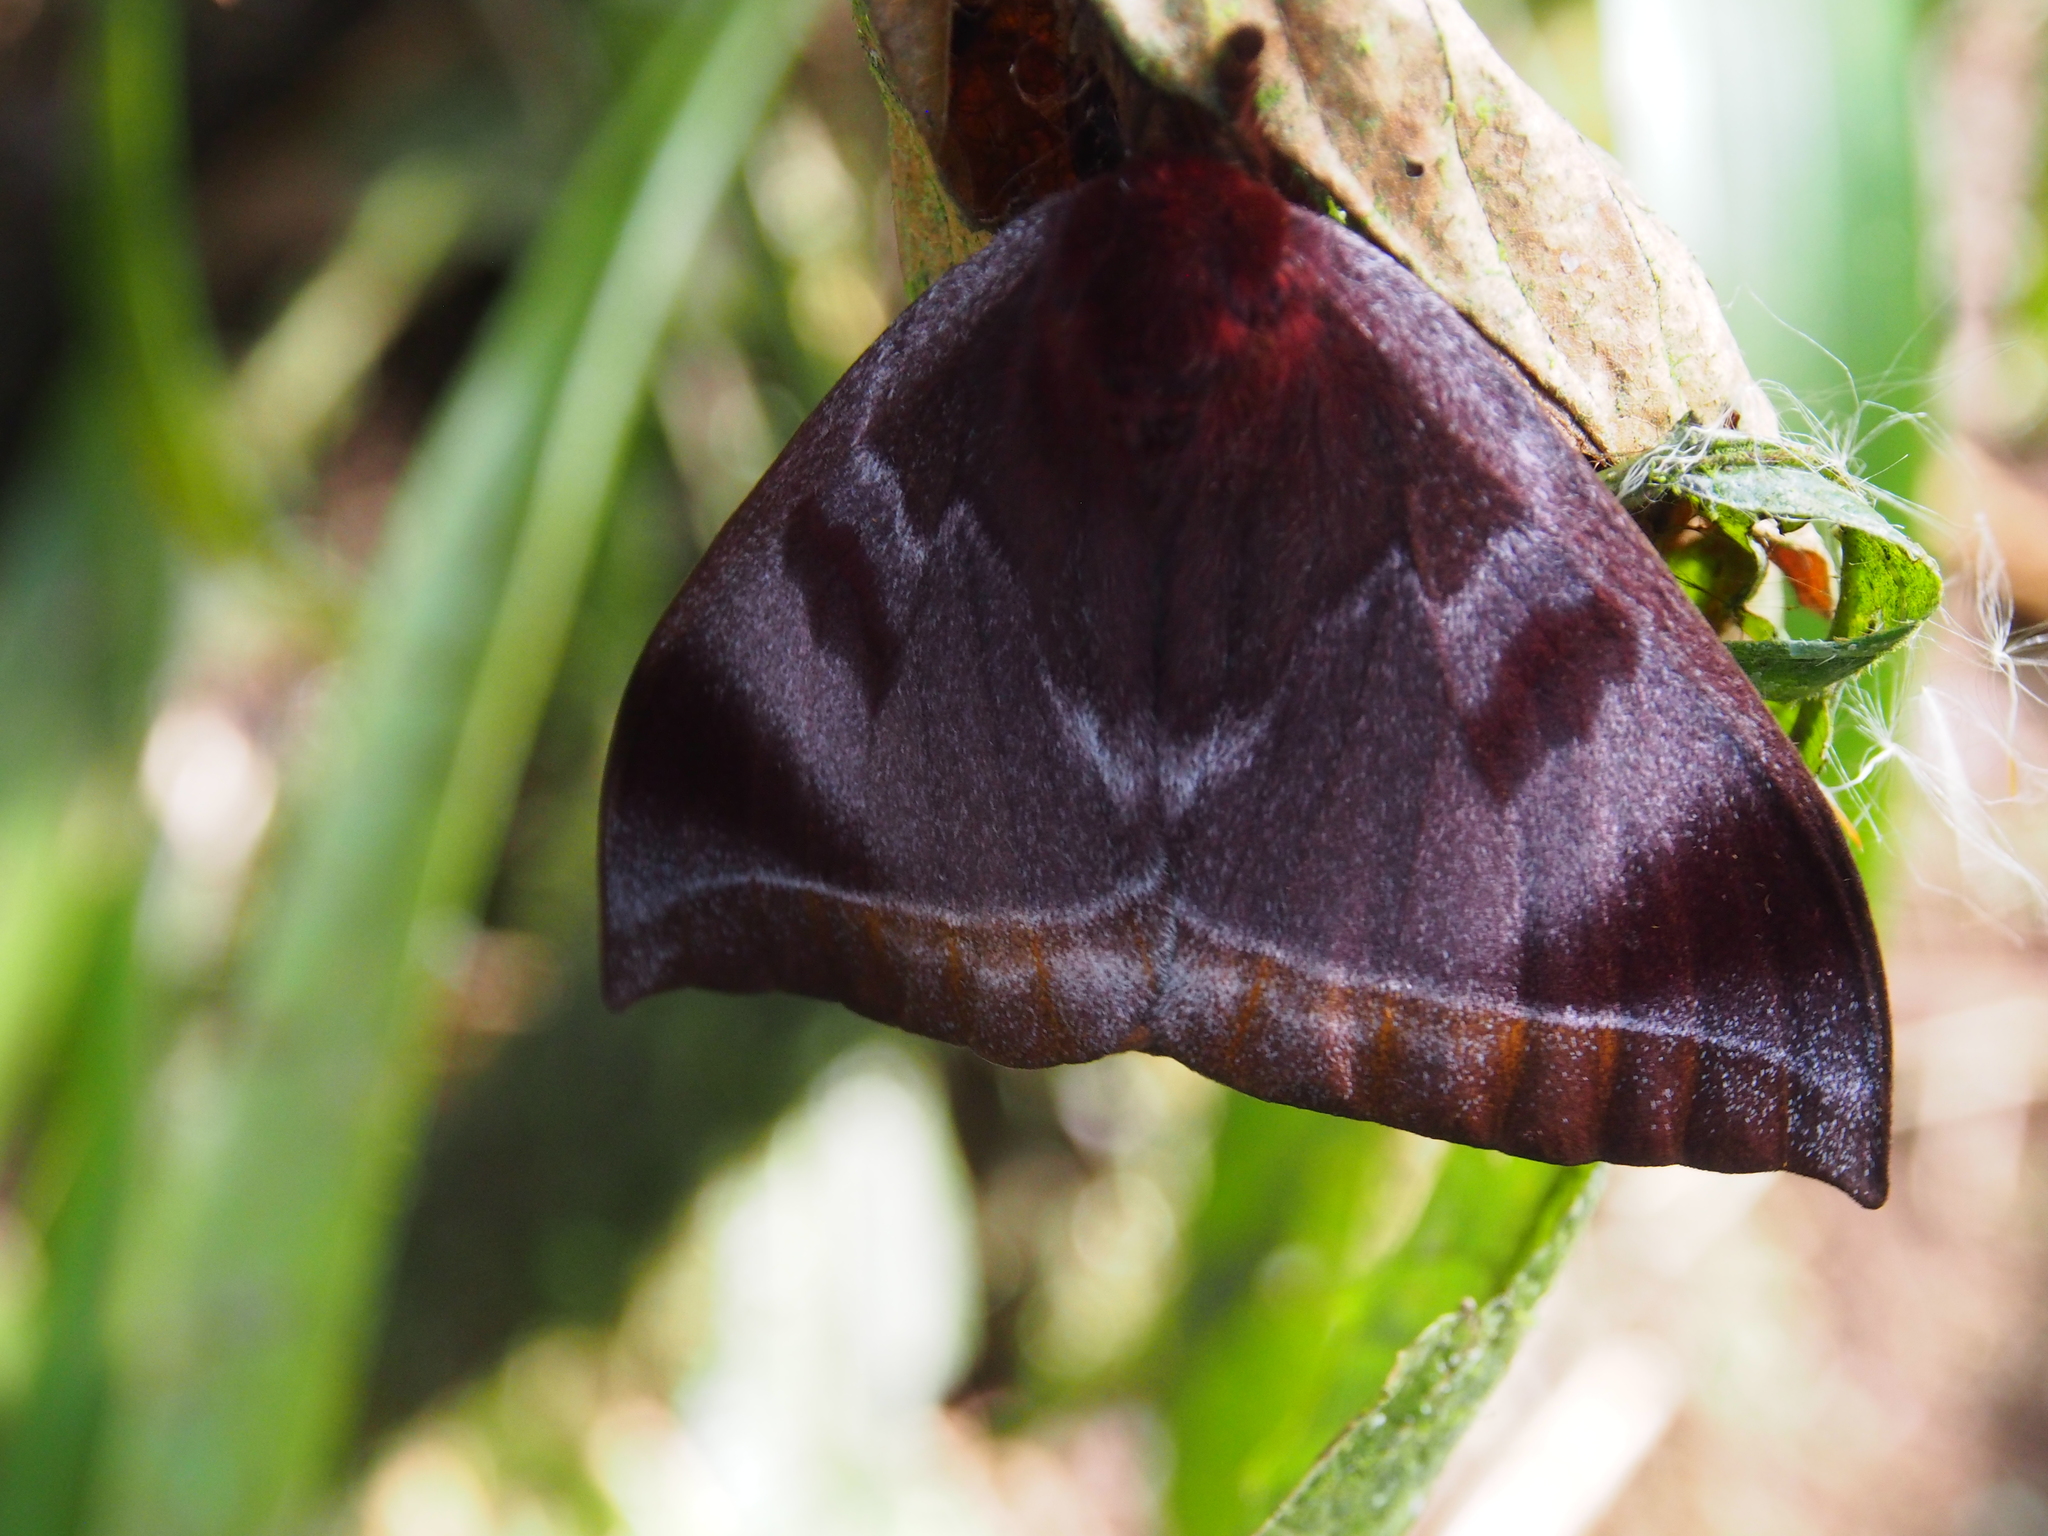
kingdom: Animalia
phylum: Arthropoda
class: Insecta
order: Lepidoptera
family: Saturniidae
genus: Automeris
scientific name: Automeris phrynon
